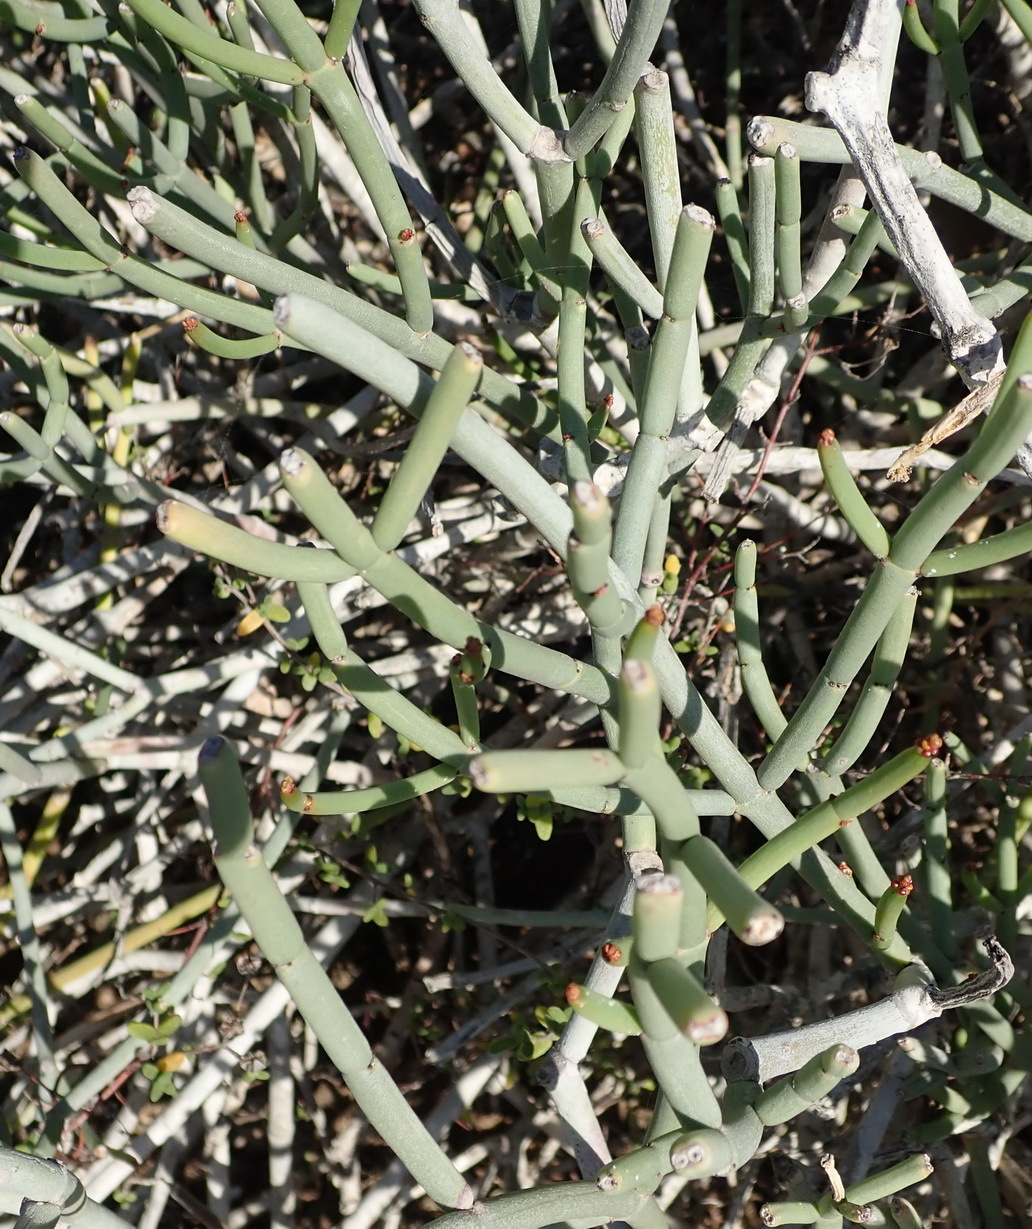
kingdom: Plantae
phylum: Tracheophyta
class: Magnoliopsida
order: Malpighiales
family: Euphorbiaceae
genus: Euphorbia
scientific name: Euphorbia burmanni
